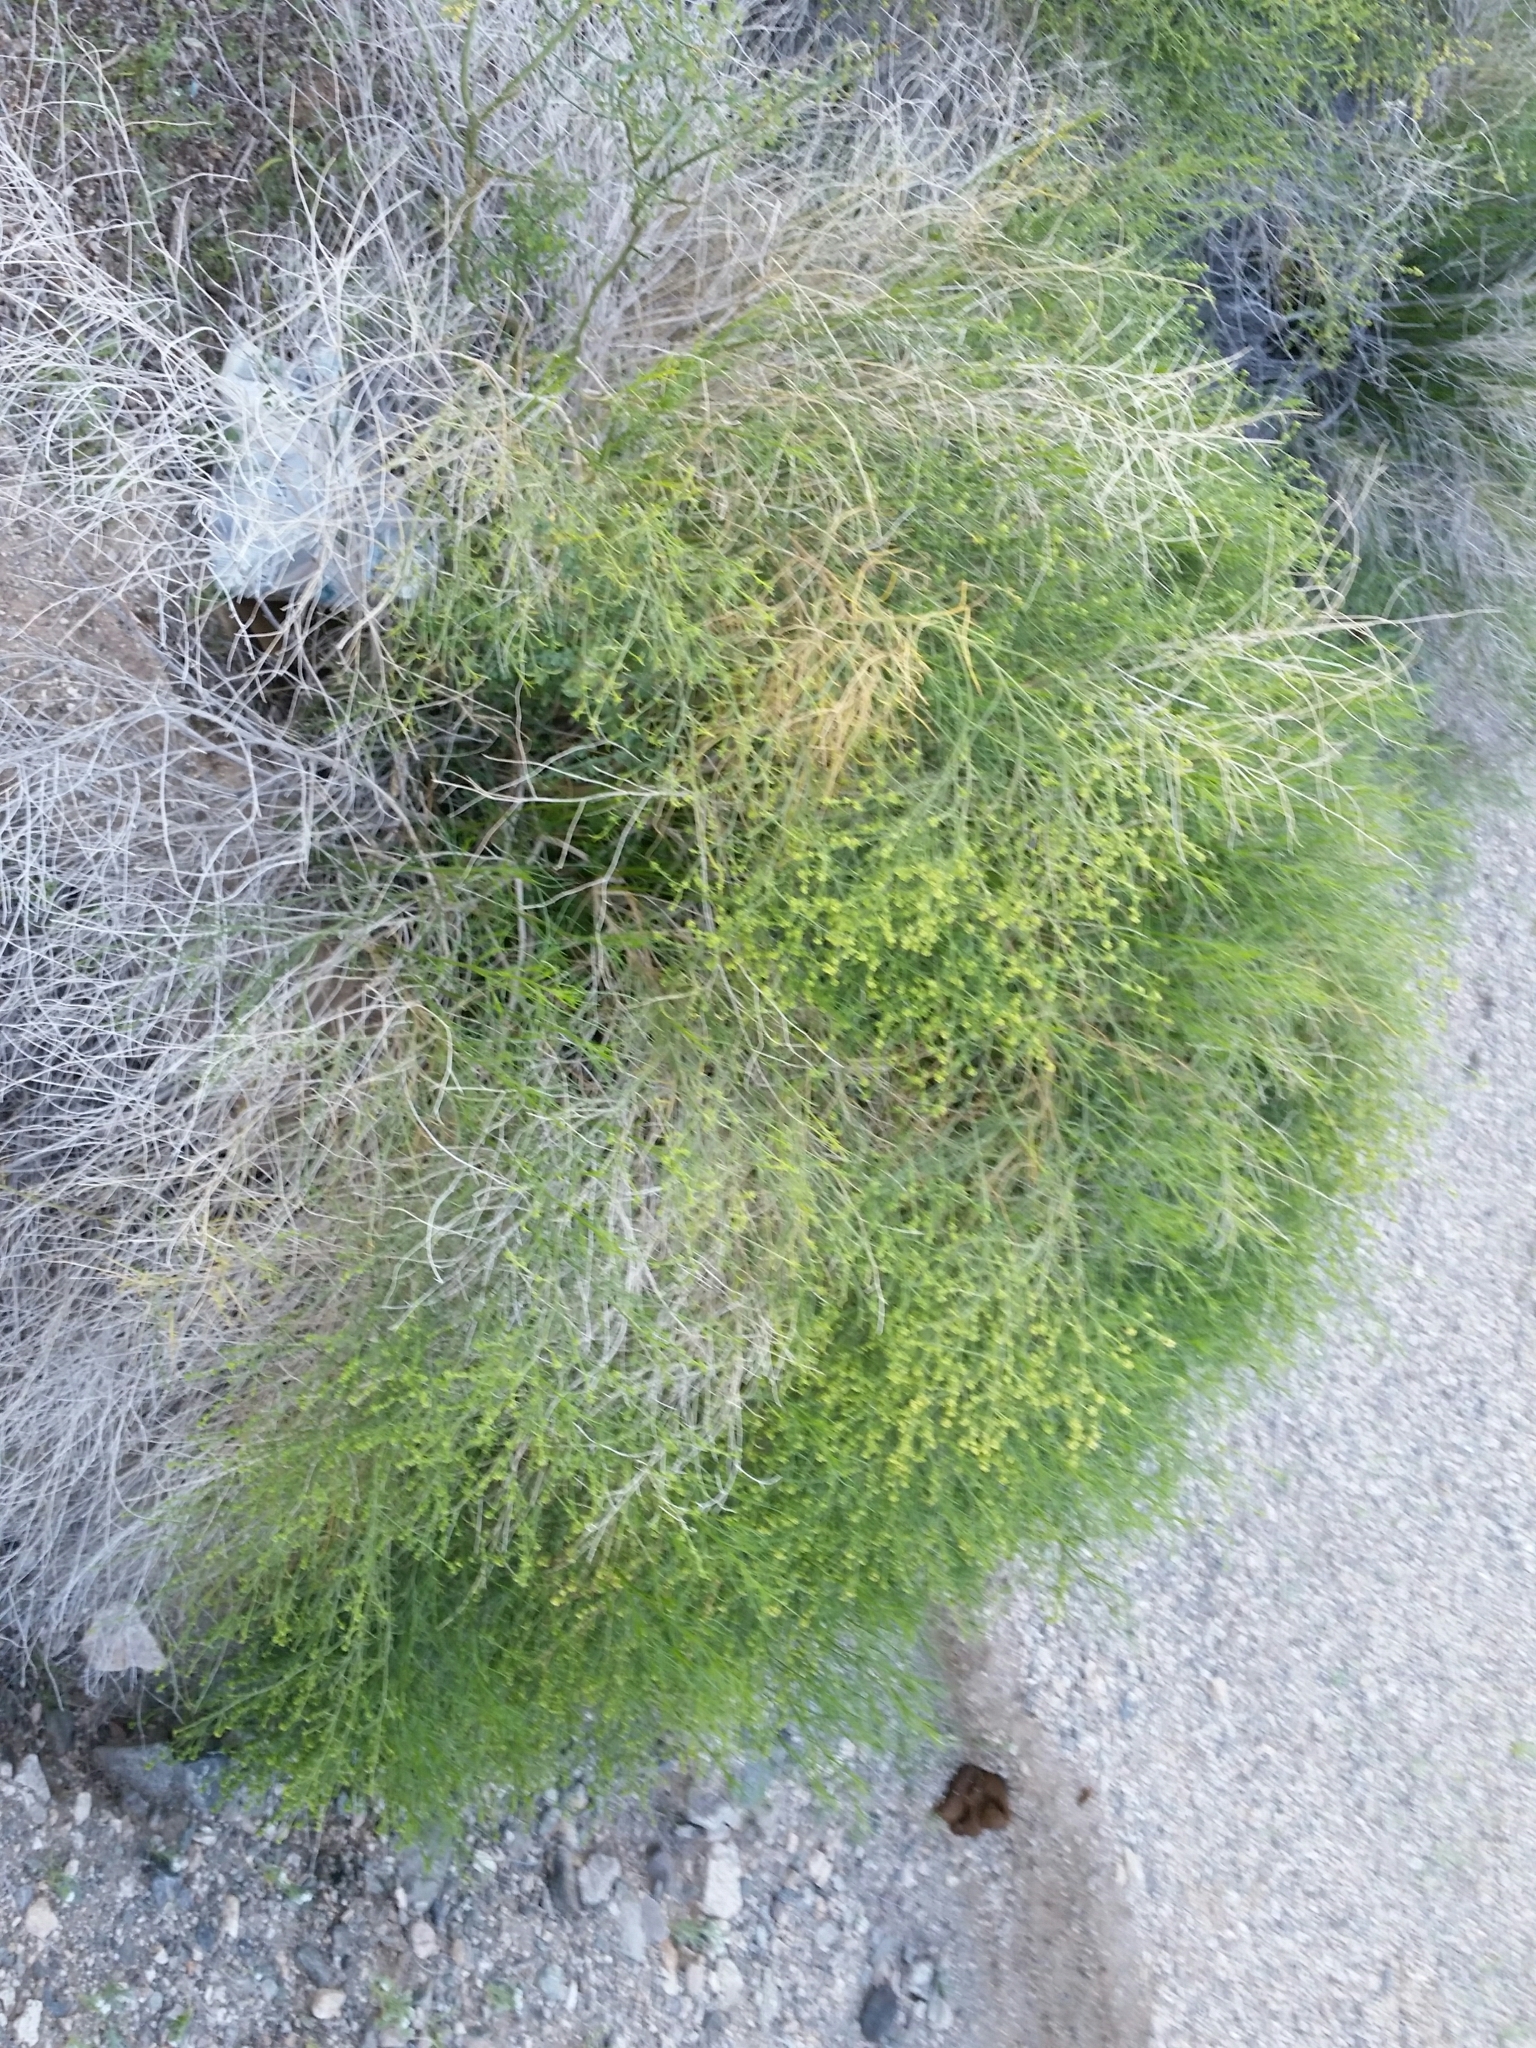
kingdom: Plantae
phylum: Tracheophyta
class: Magnoliopsida
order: Asterales
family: Asteraceae
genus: Ambrosia
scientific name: Ambrosia salsola
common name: Burrobrush
